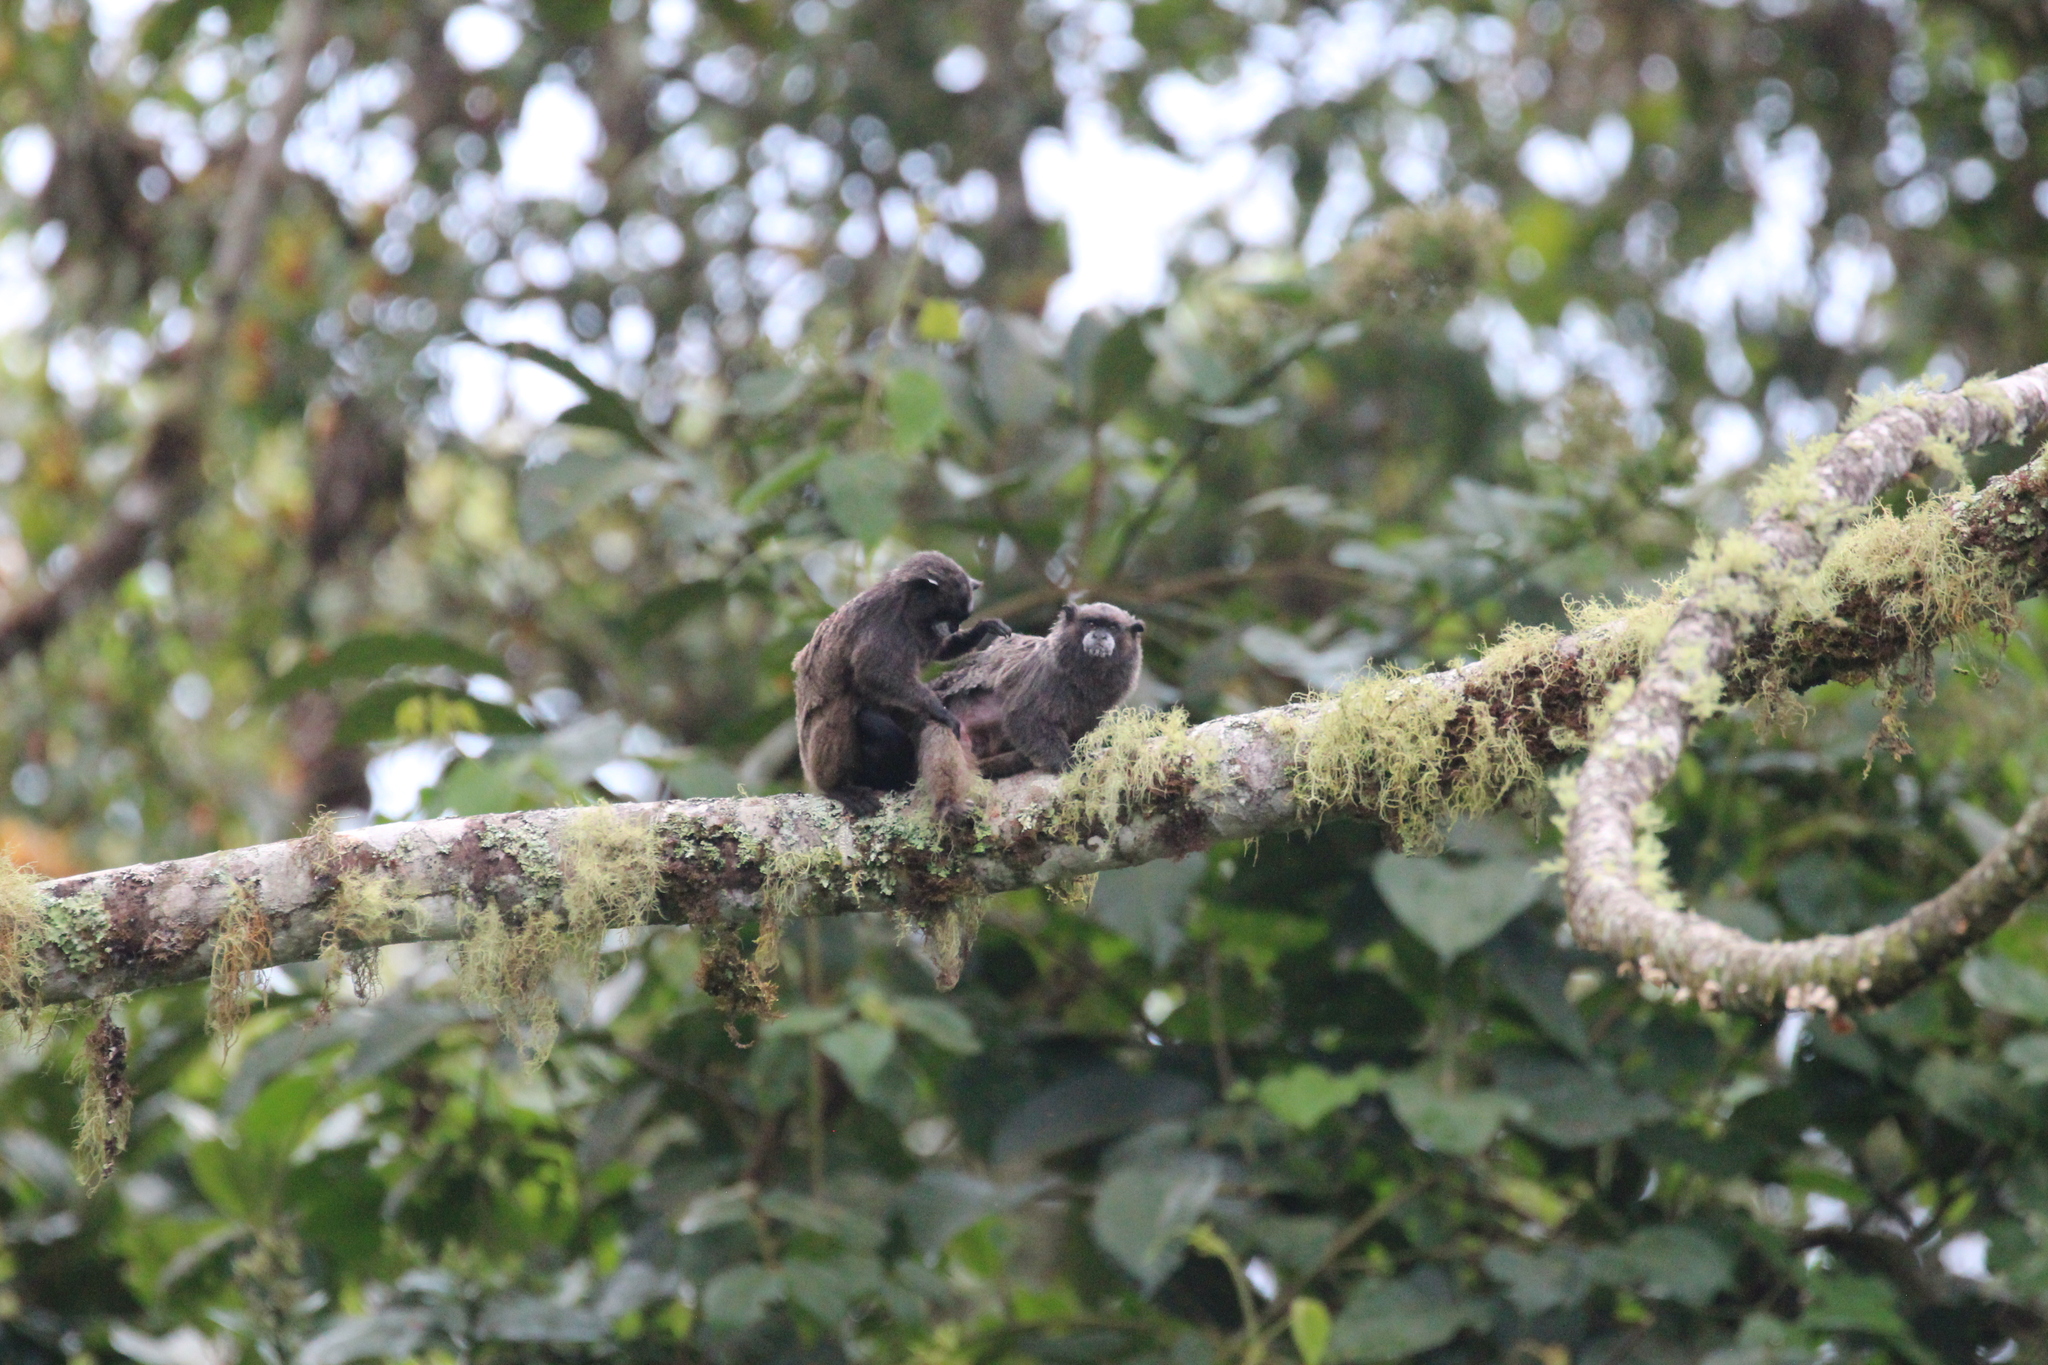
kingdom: Animalia
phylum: Chordata
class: Mammalia
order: Primates
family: Callitrichidae
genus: Leontocebus
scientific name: Leontocebus nigricollis
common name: Black-mantled tamarin
